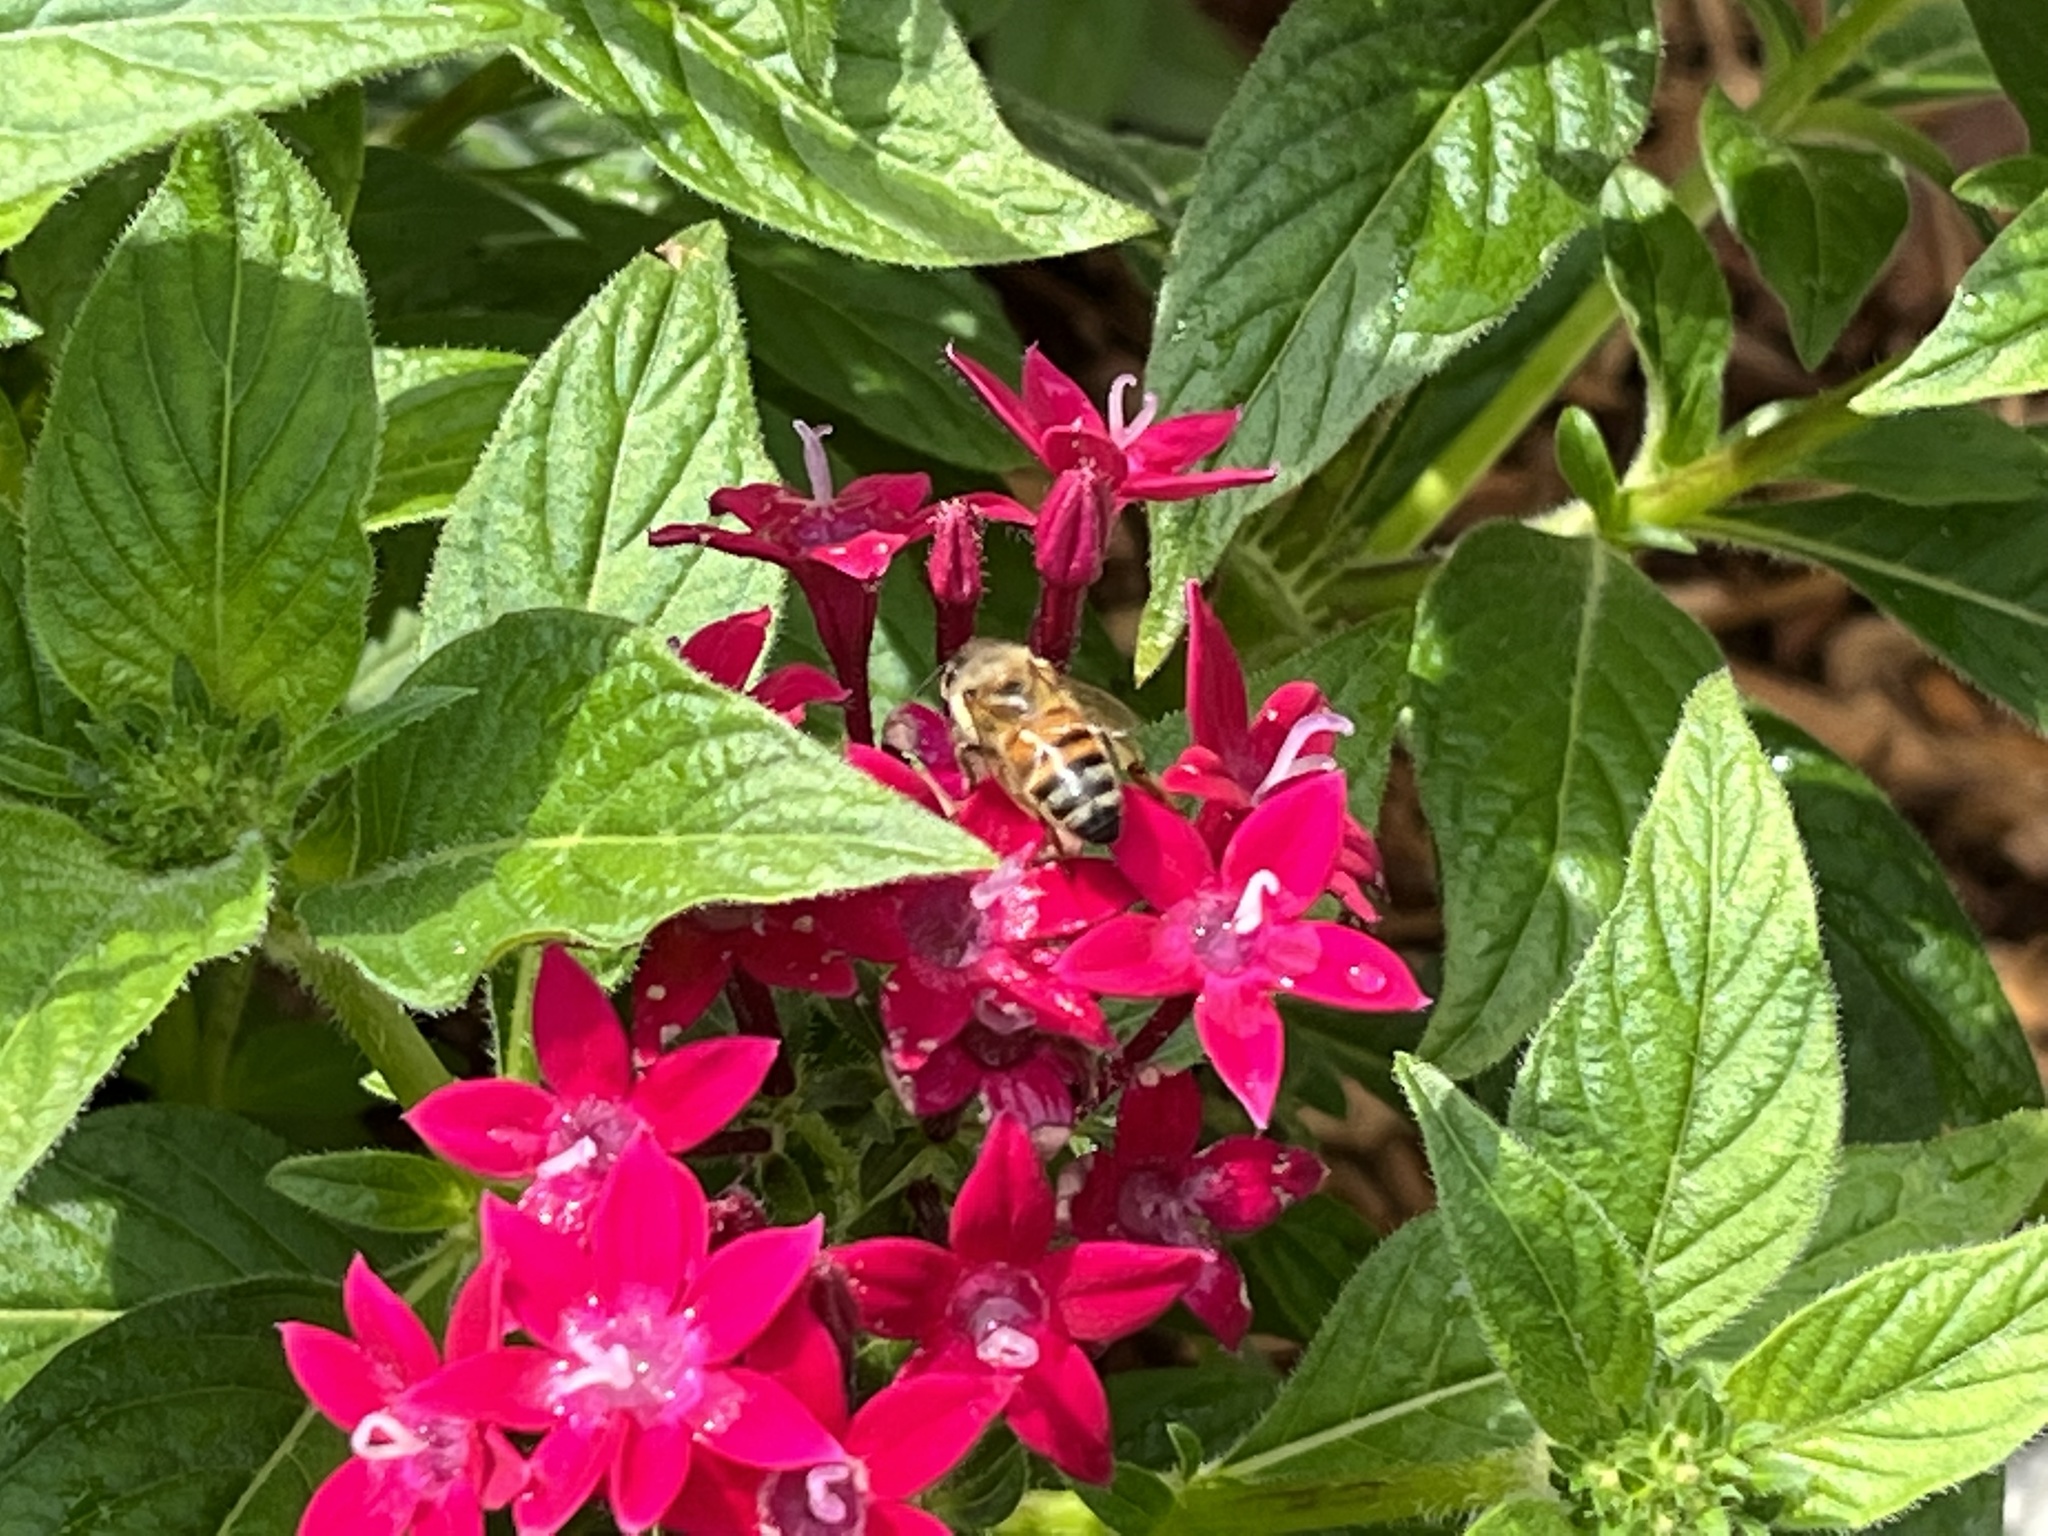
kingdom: Animalia
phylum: Arthropoda
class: Insecta
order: Hymenoptera
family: Apidae
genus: Apis
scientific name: Apis mellifera
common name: Honey bee
